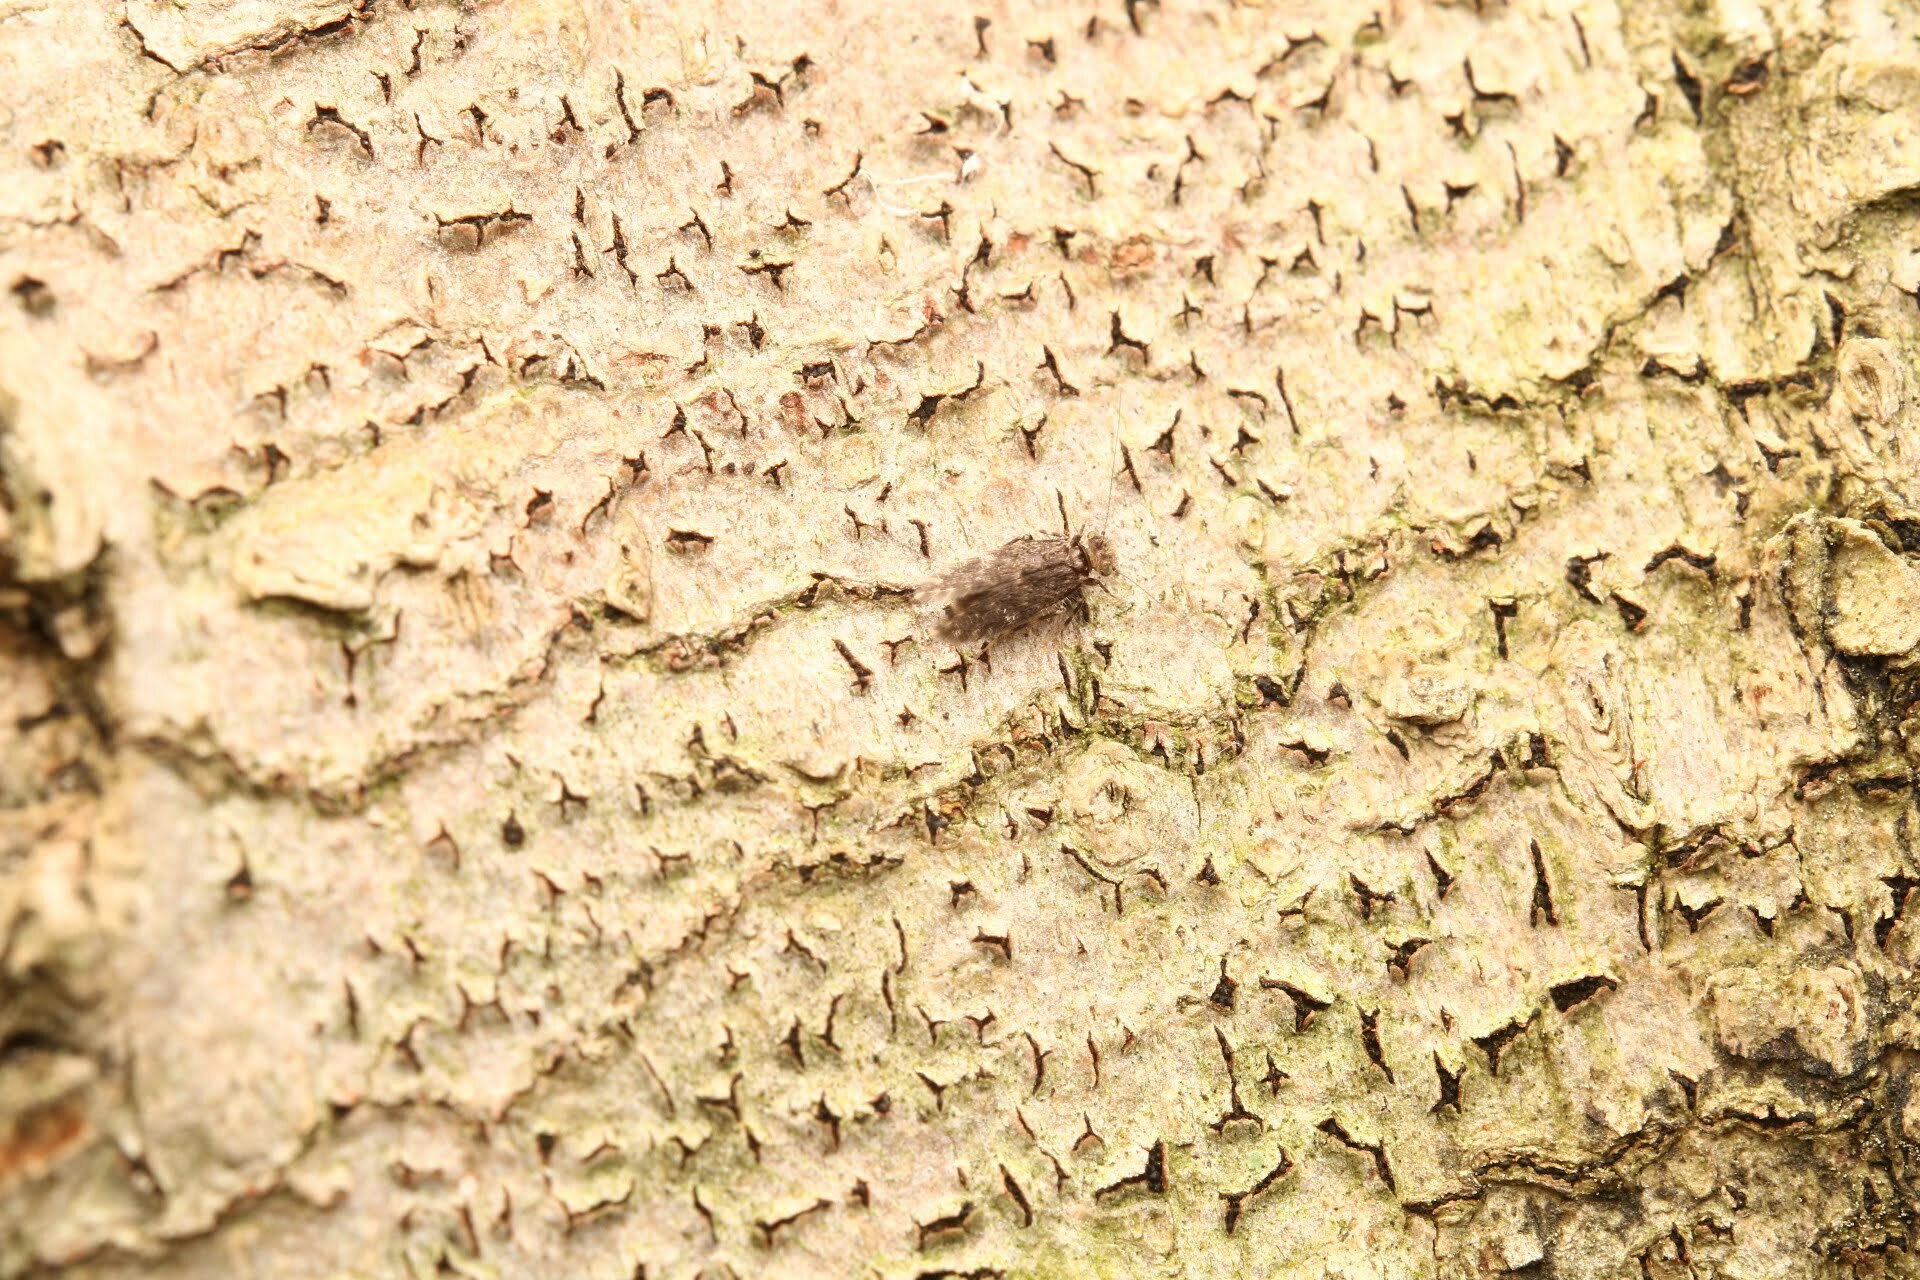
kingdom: Animalia
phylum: Arthropoda
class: Insecta
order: Psocodea
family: Lepidopsocidae
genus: Echmepteryx
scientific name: Echmepteryx hageni
